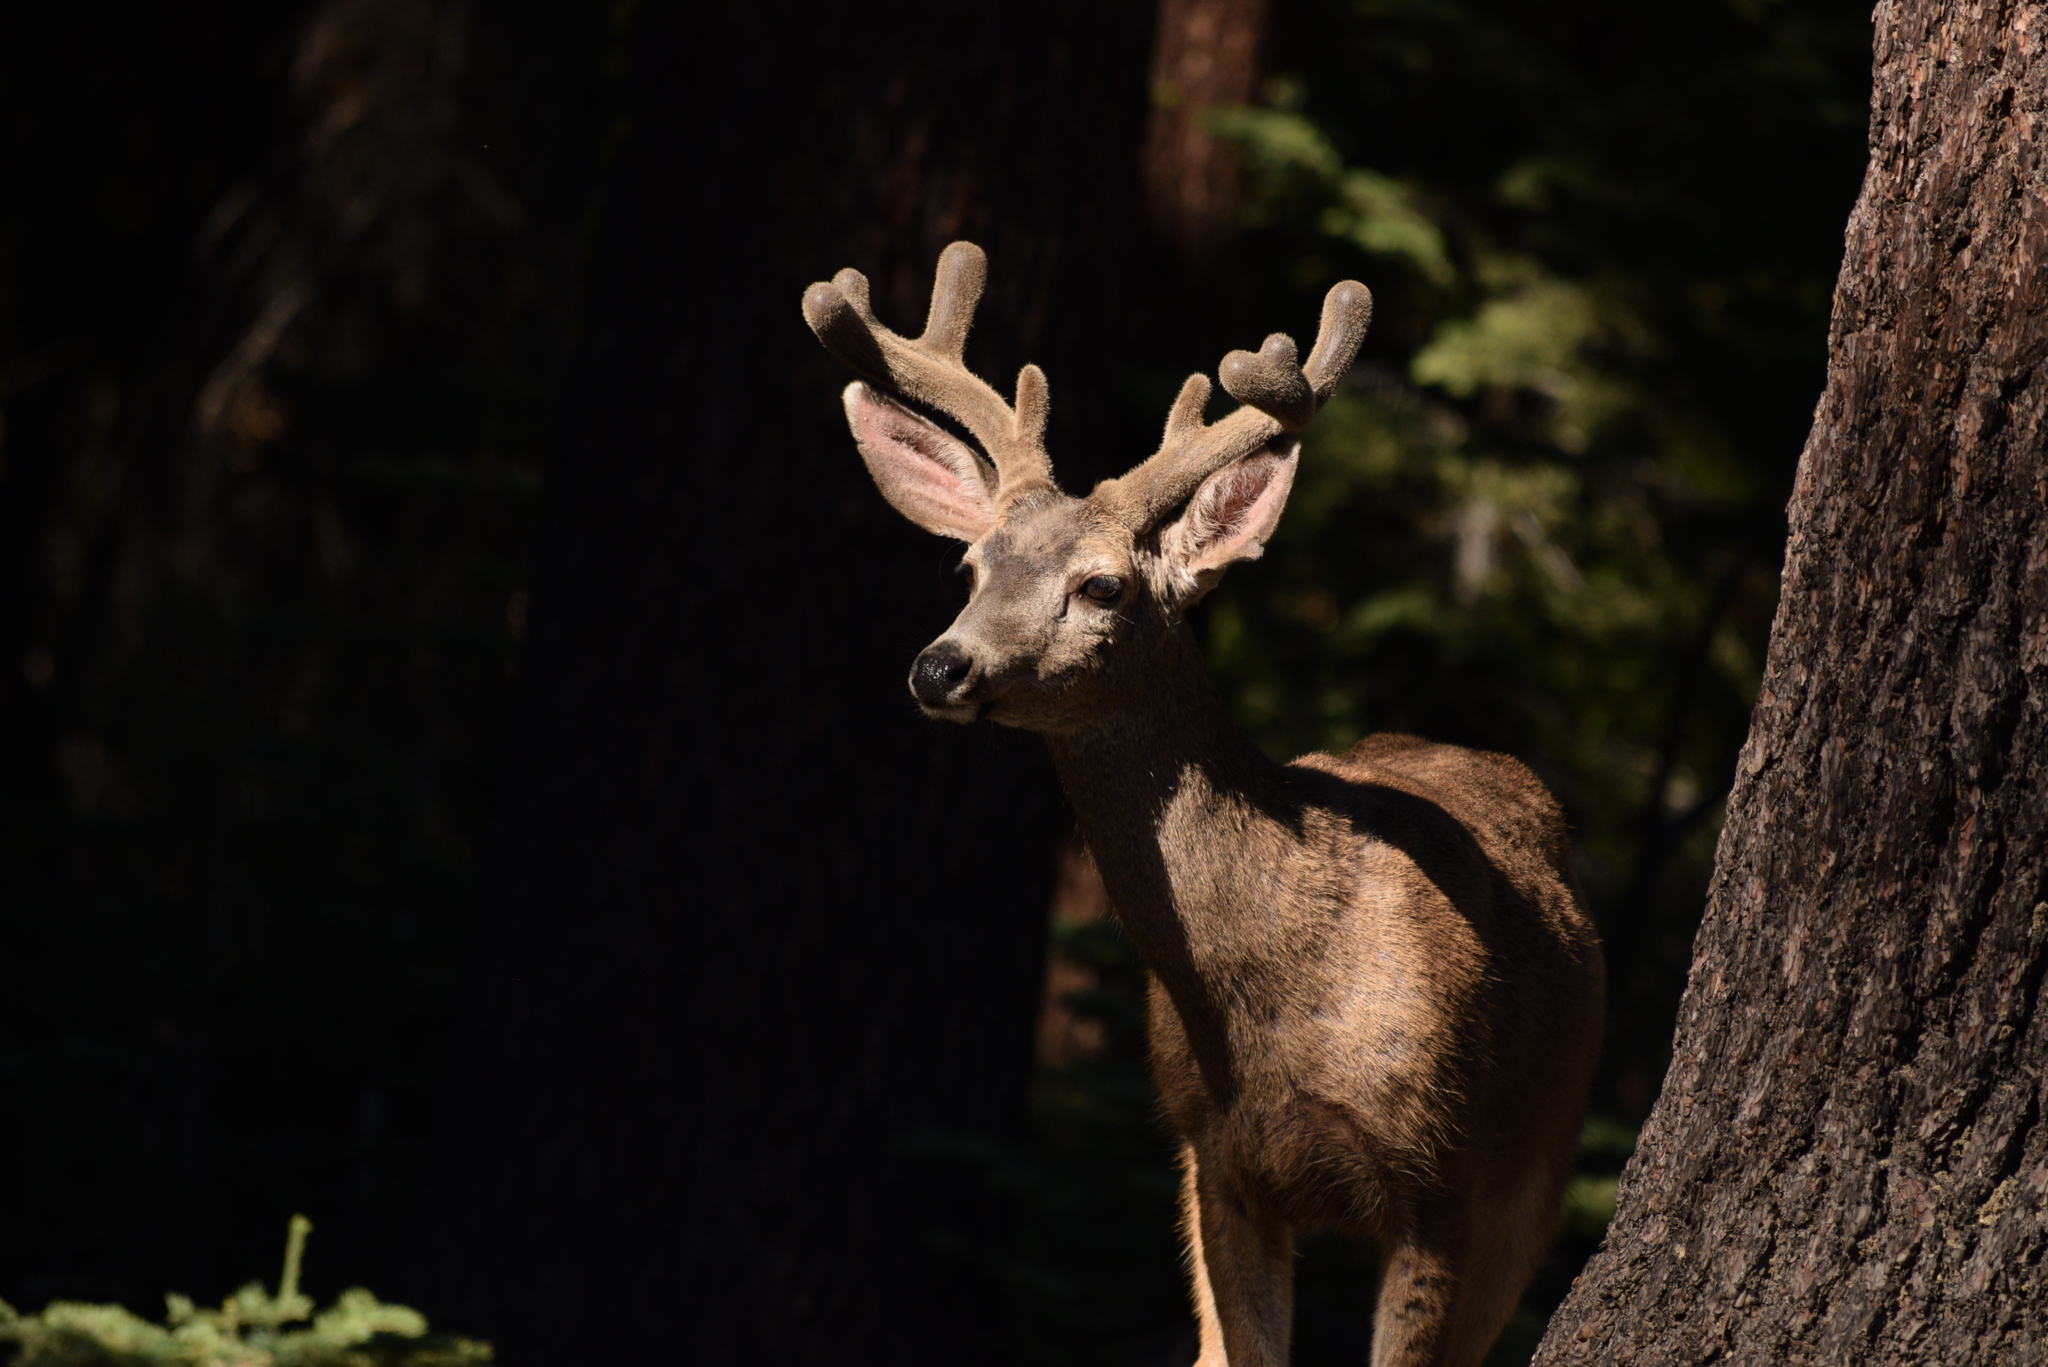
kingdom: Animalia
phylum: Chordata
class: Mammalia
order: Artiodactyla
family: Cervidae
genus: Odocoileus
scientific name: Odocoileus hemionus
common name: Mule deer
